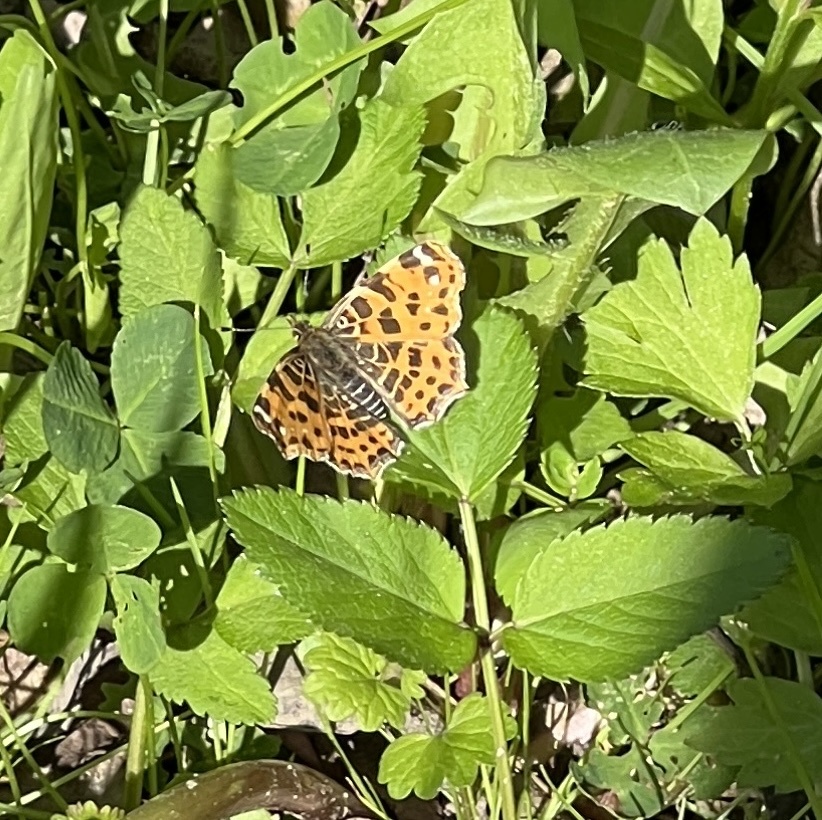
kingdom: Animalia
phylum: Arthropoda
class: Insecta
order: Lepidoptera
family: Nymphalidae
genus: Araschnia
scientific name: Araschnia levana
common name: Map butterfly
